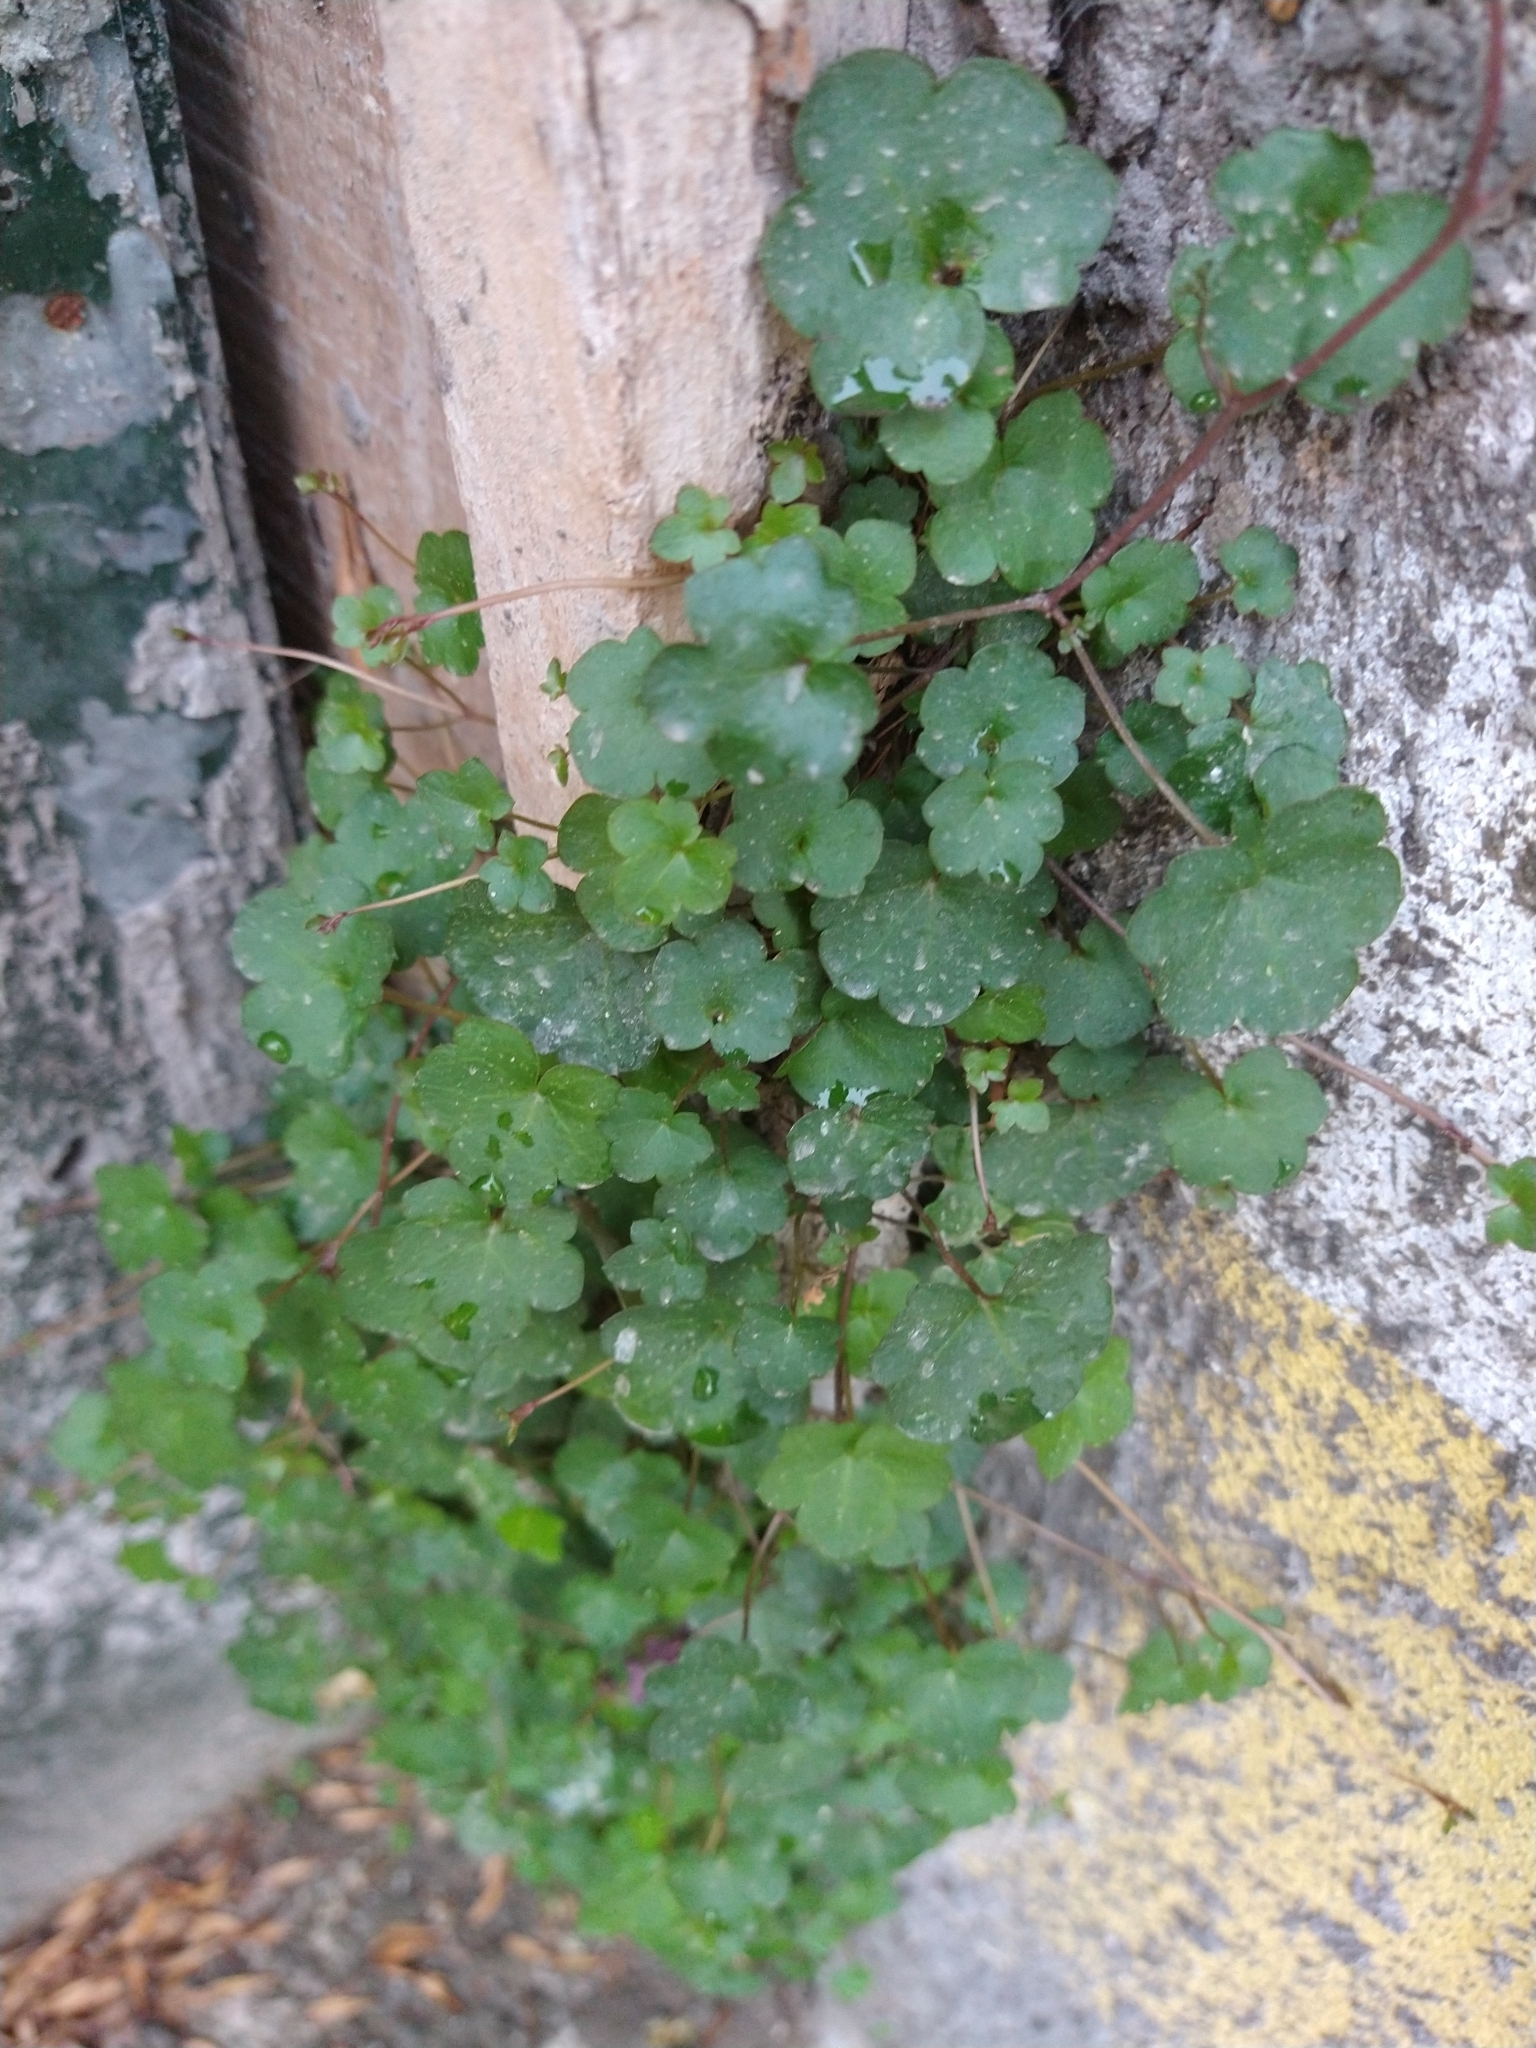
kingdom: Plantae
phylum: Tracheophyta
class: Magnoliopsida
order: Lamiales
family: Plantaginaceae
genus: Cymbalaria
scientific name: Cymbalaria muralis
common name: Ivy-leaved toadflax
